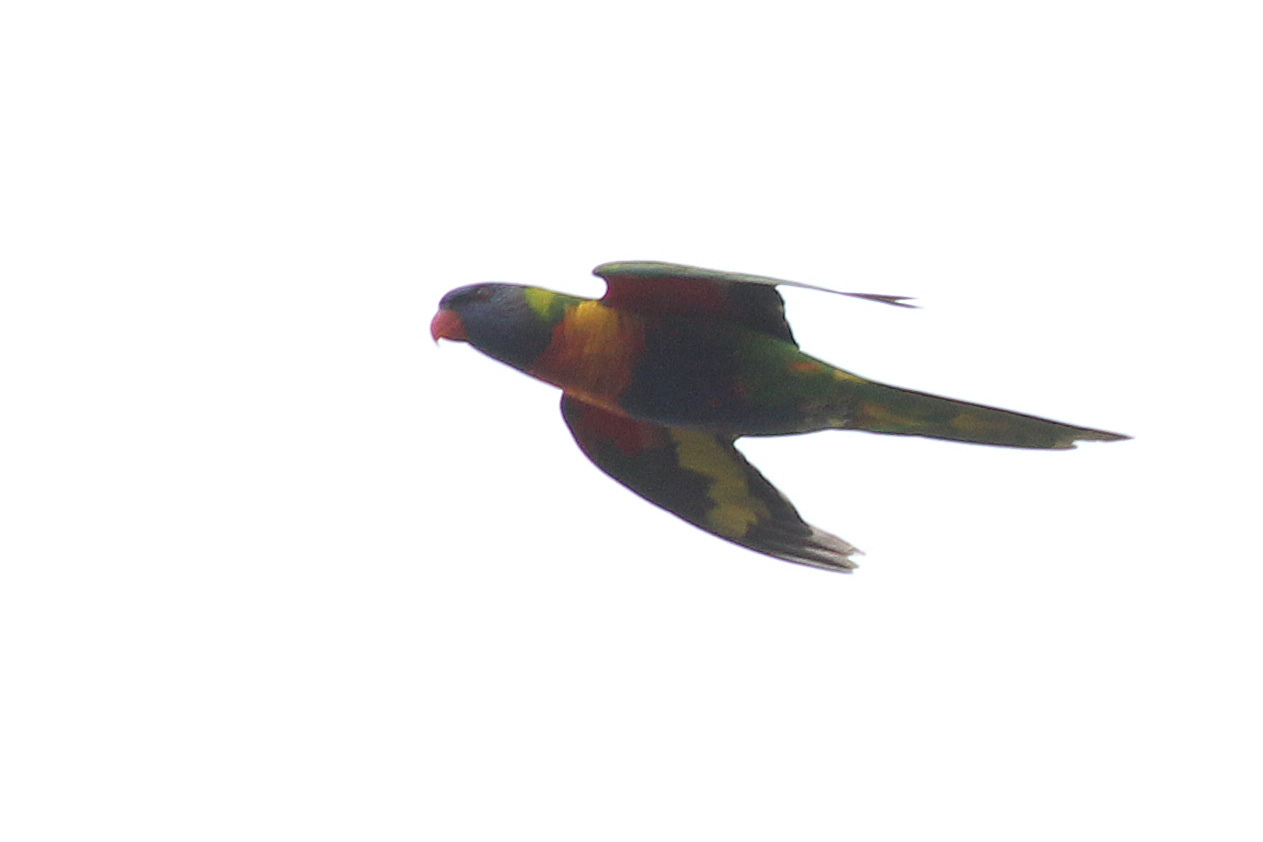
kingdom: Animalia
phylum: Chordata
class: Aves
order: Psittaciformes
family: Psittacidae
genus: Trichoglossus
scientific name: Trichoglossus haematodus
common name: Coconut lorikeet
